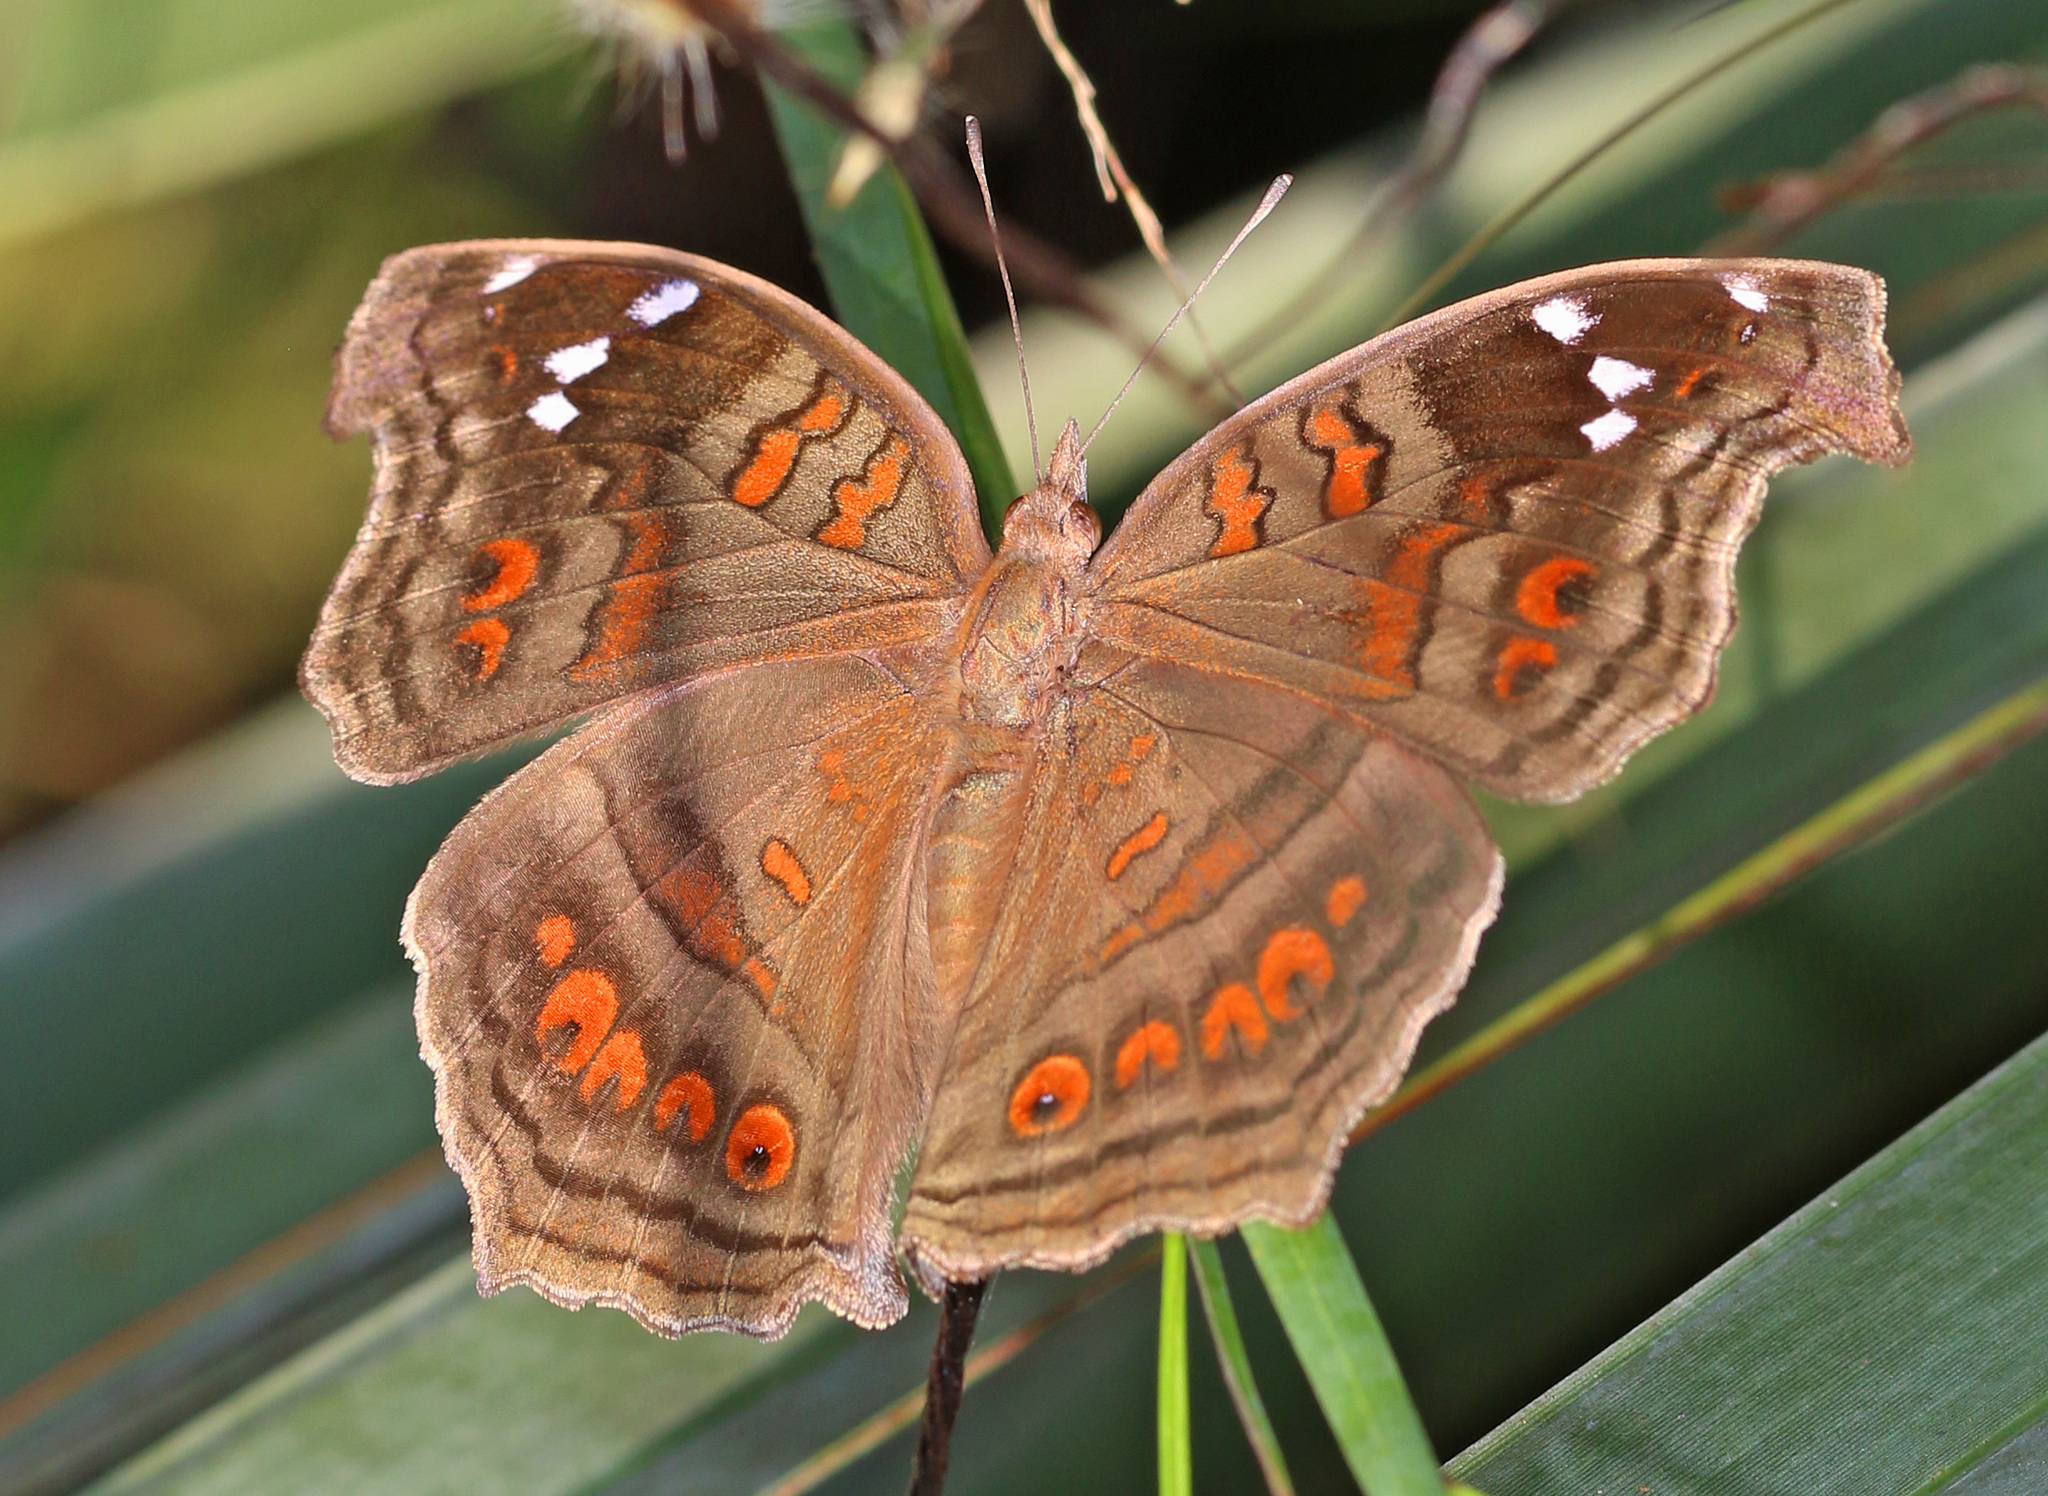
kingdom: Animalia
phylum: Arthropoda
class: Insecta
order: Lepidoptera
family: Nymphalidae
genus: Junonia
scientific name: Junonia natalica
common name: Brown pansy
